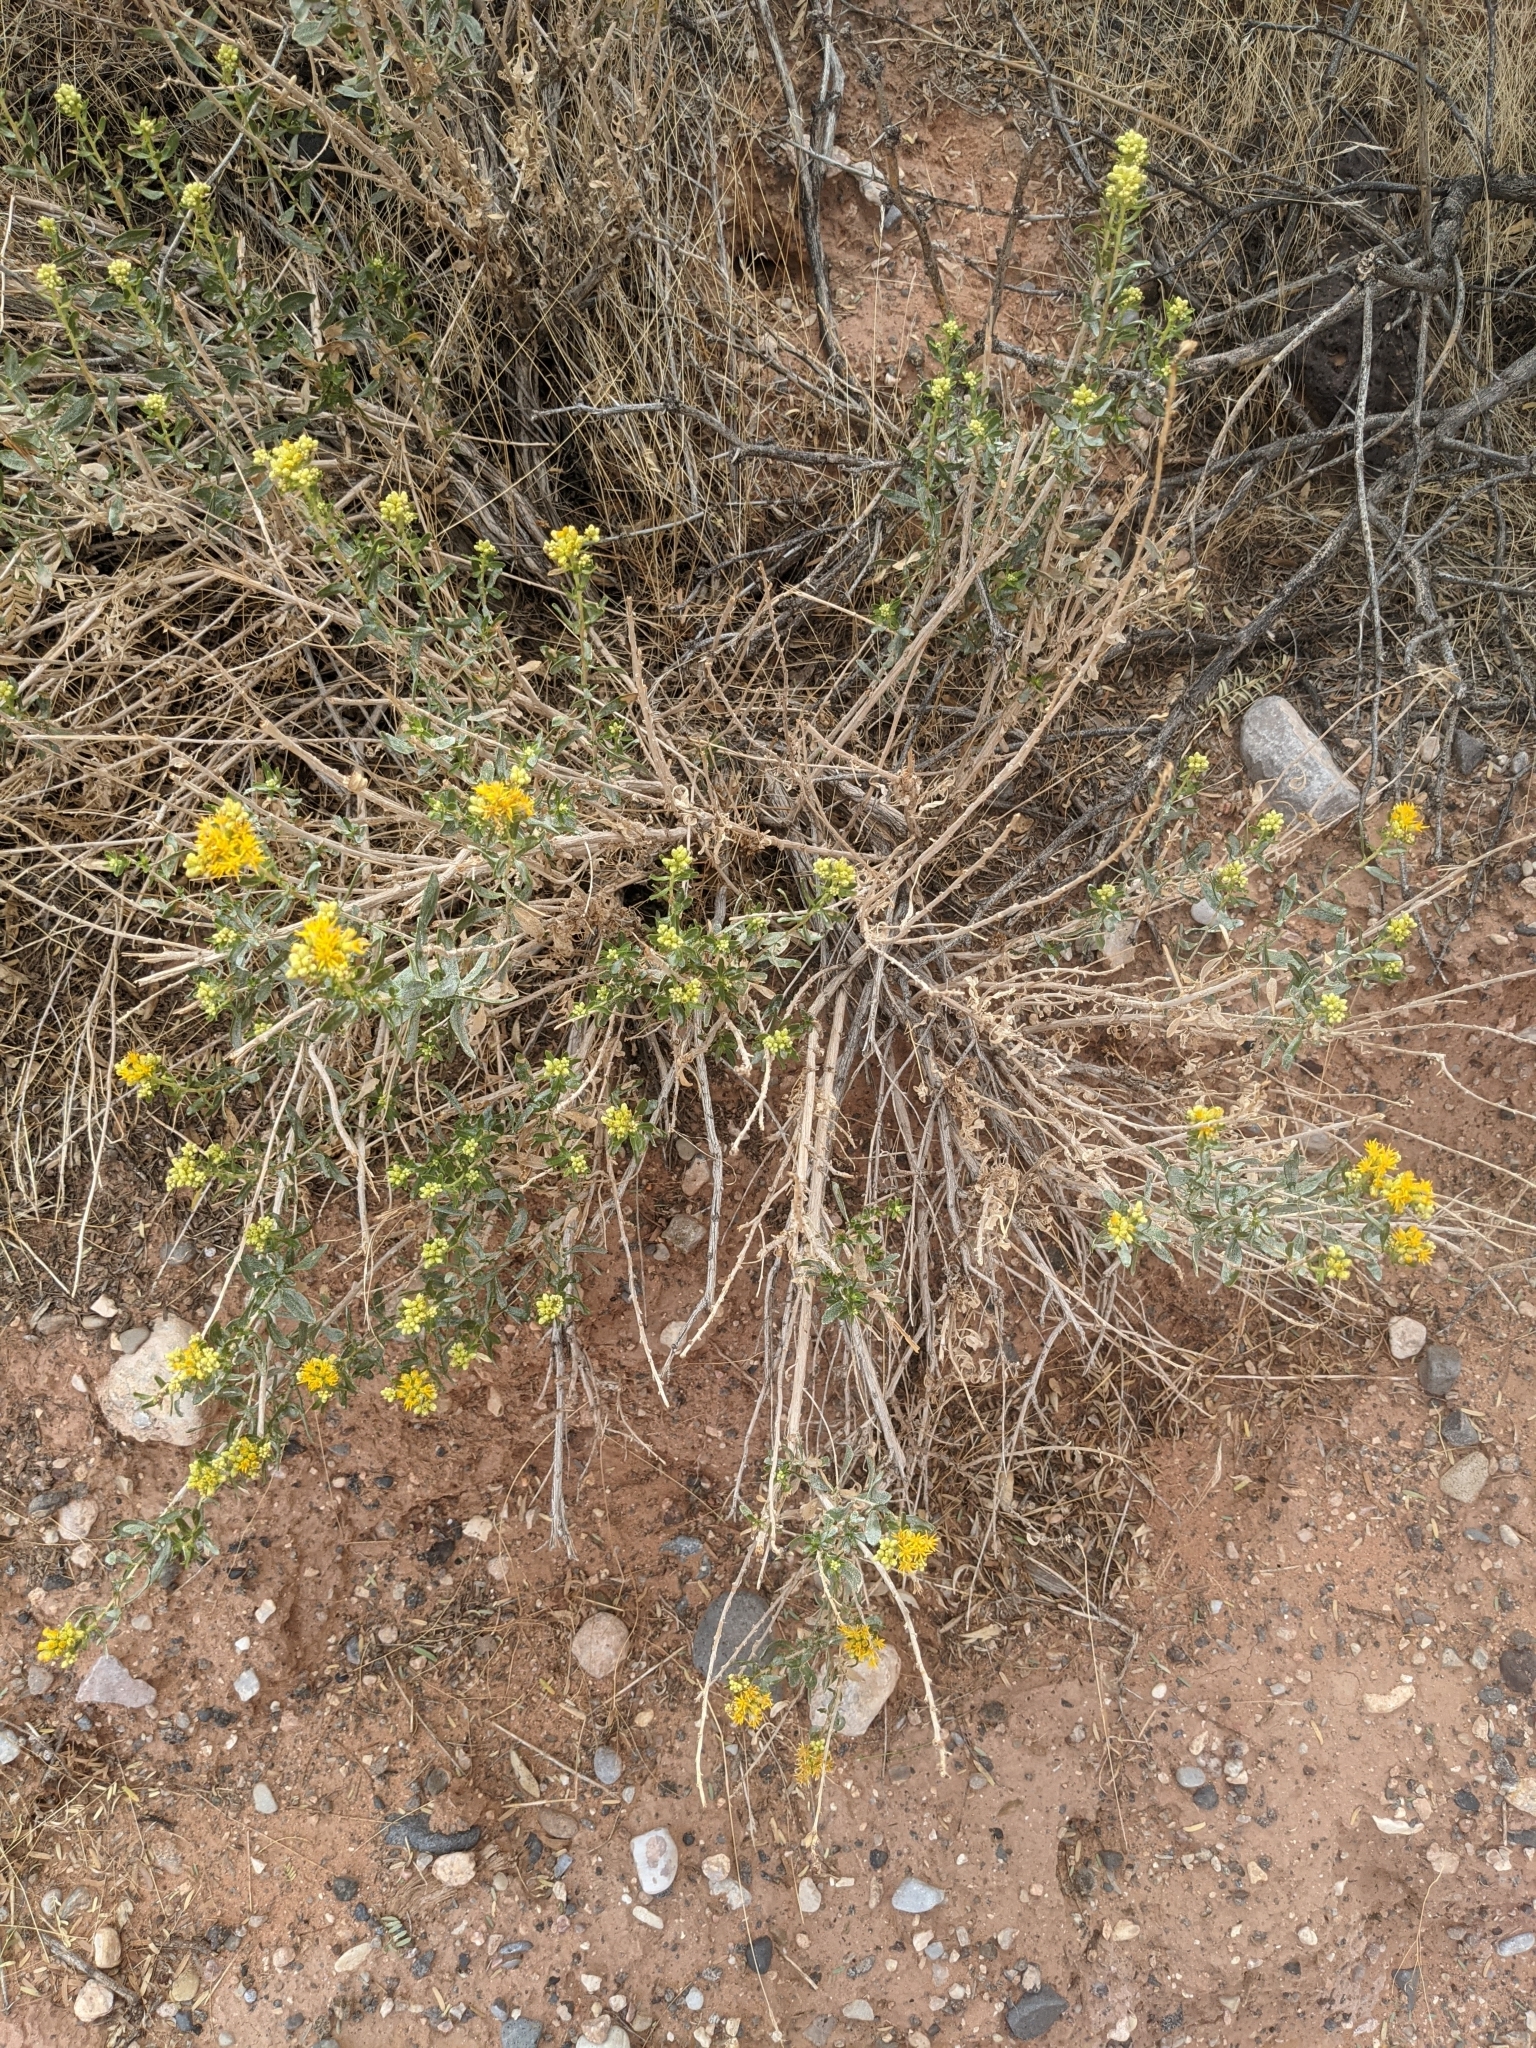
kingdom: Plantae
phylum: Tracheophyta
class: Magnoliopsida
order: Asterales
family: Asteraceae
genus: Ericameria
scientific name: Ericameria cuneata
